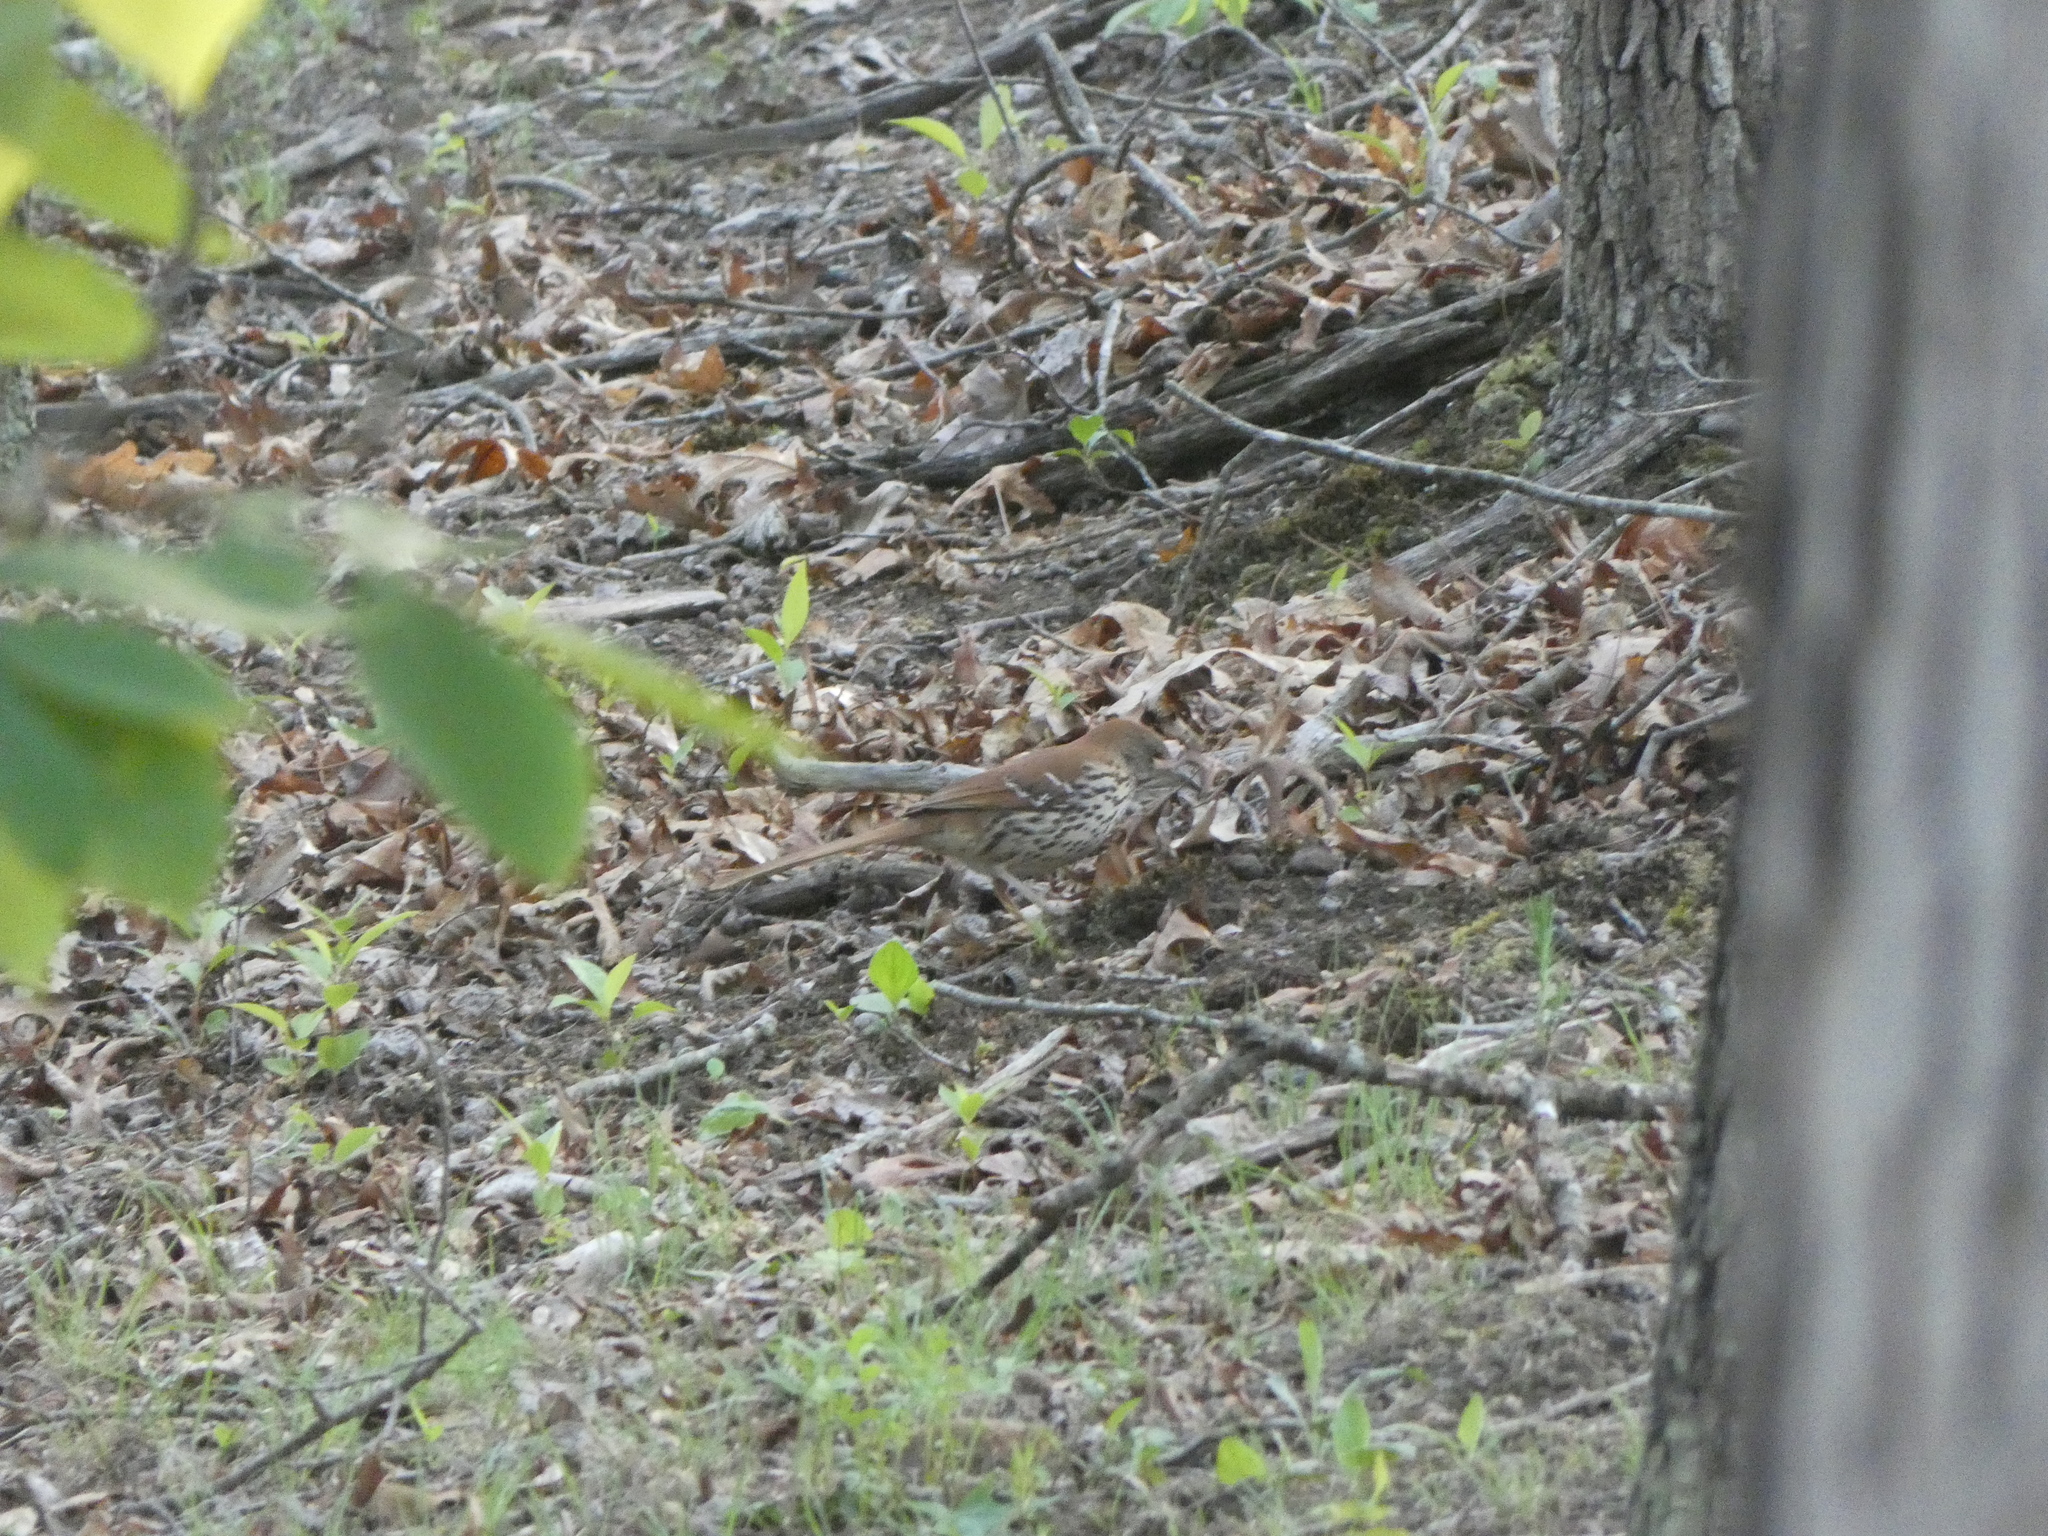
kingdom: Animalia
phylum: Chordata
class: Aves
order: Passeriformes
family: Mimidae
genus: Toxostoma
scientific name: Toxostoma rufum
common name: Brown thrasher
